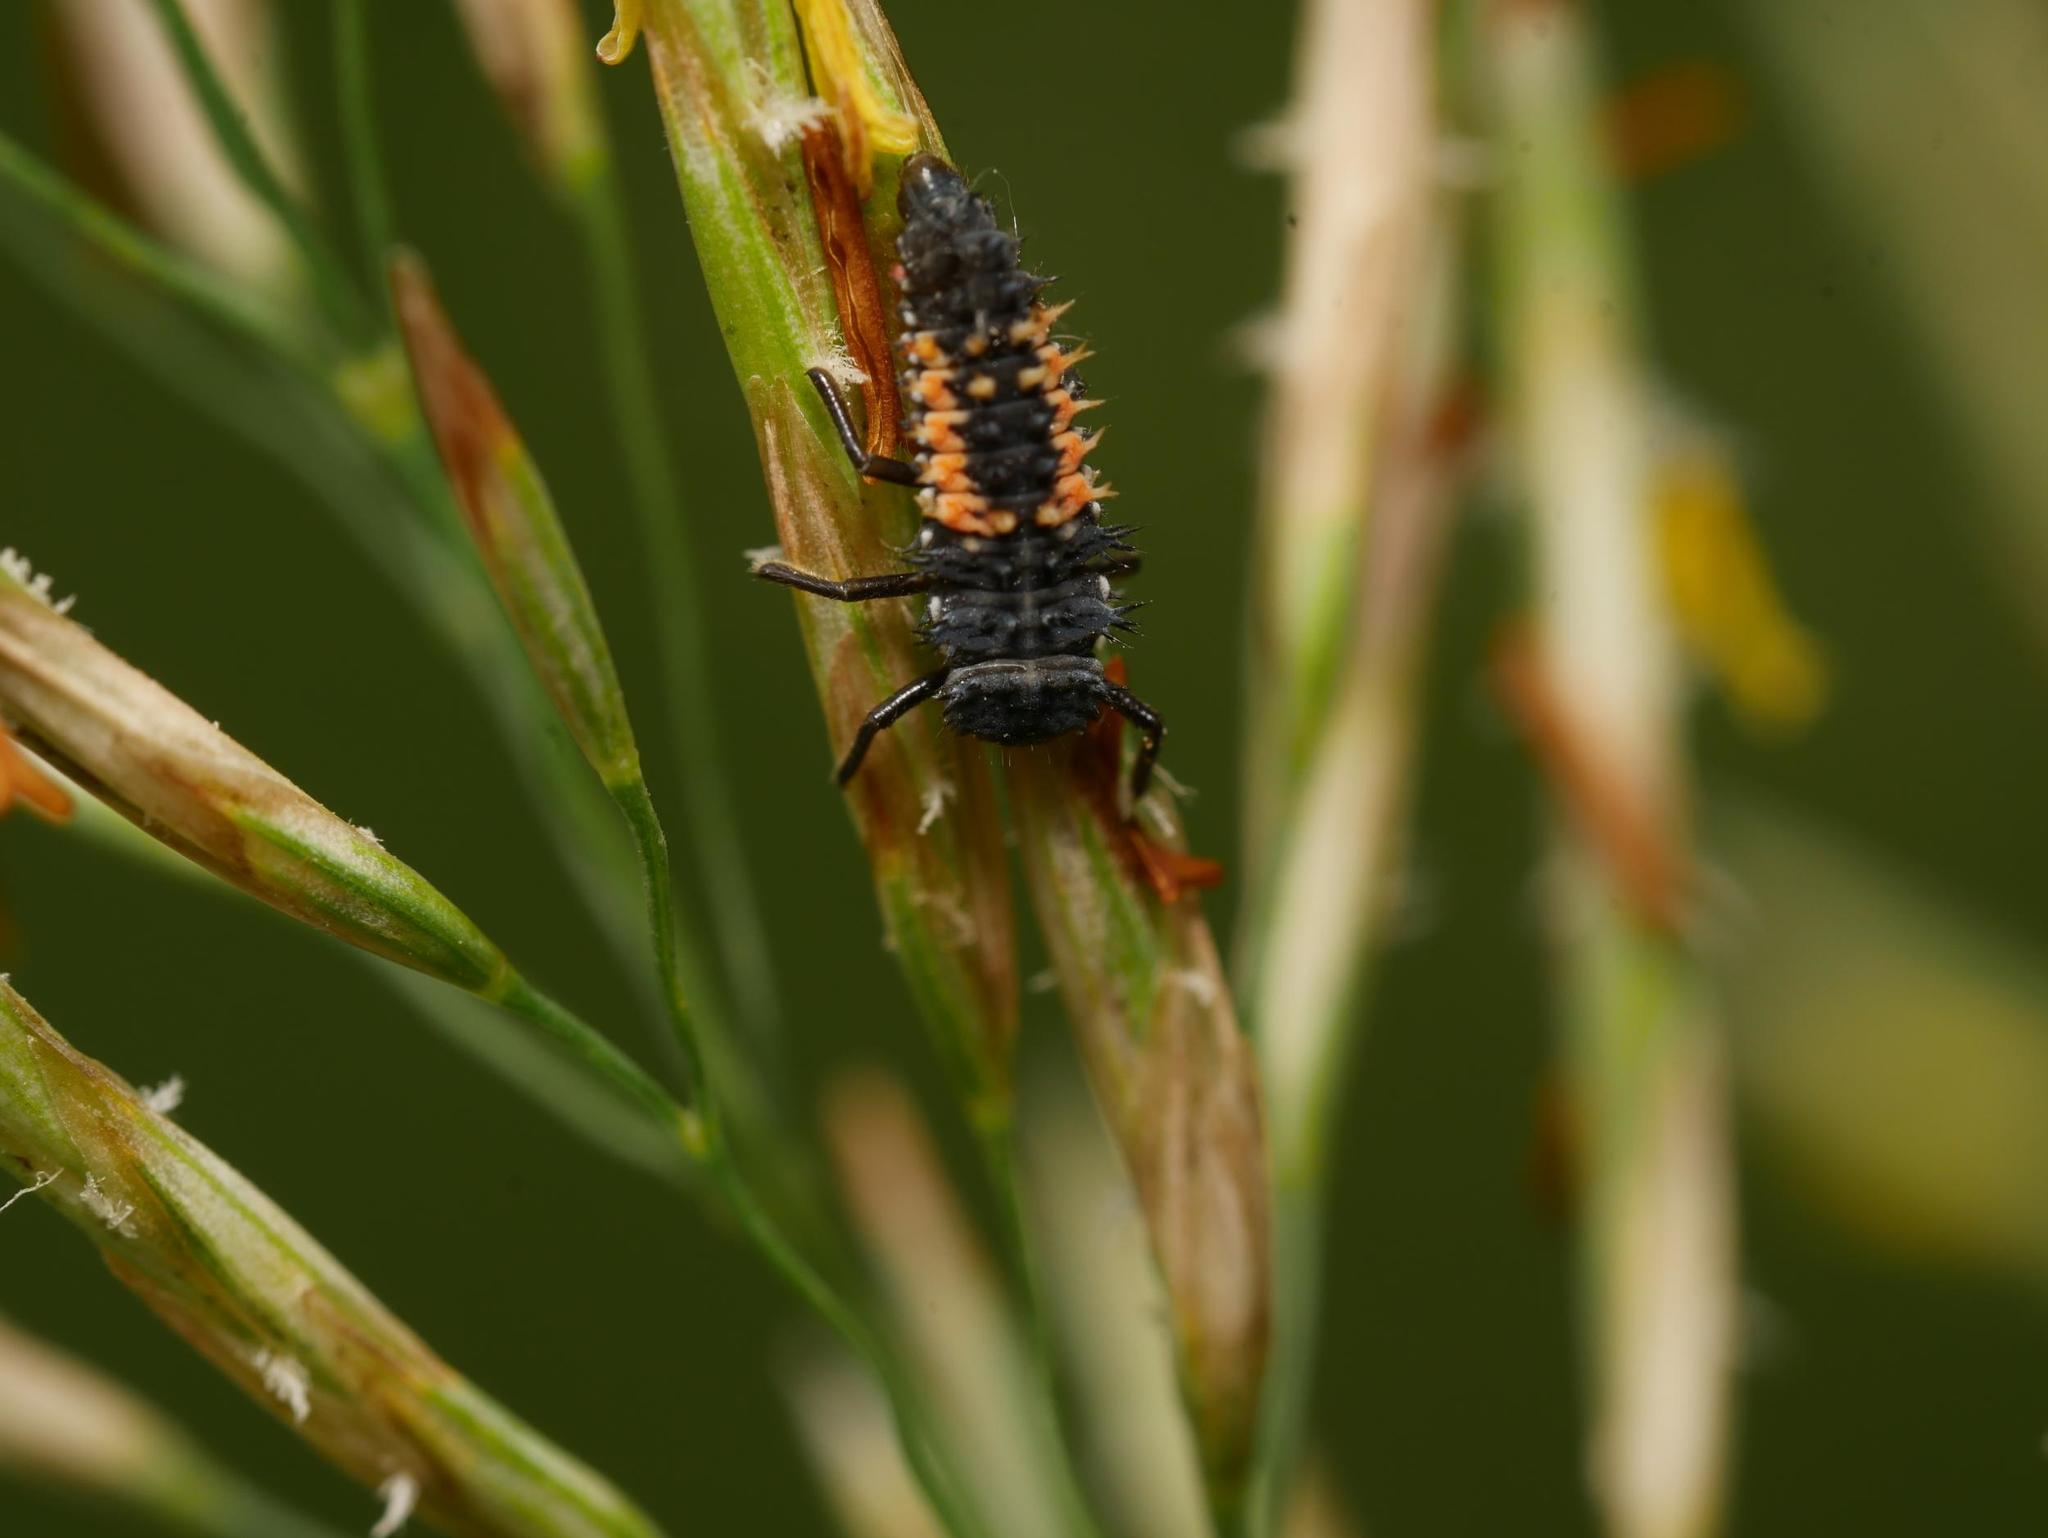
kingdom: Animalia
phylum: Arthropoda
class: Insecta
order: Coleoptera
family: Coccinellidae
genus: Harmonia
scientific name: Harmonia axyridis
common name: Harlequin ladybird
